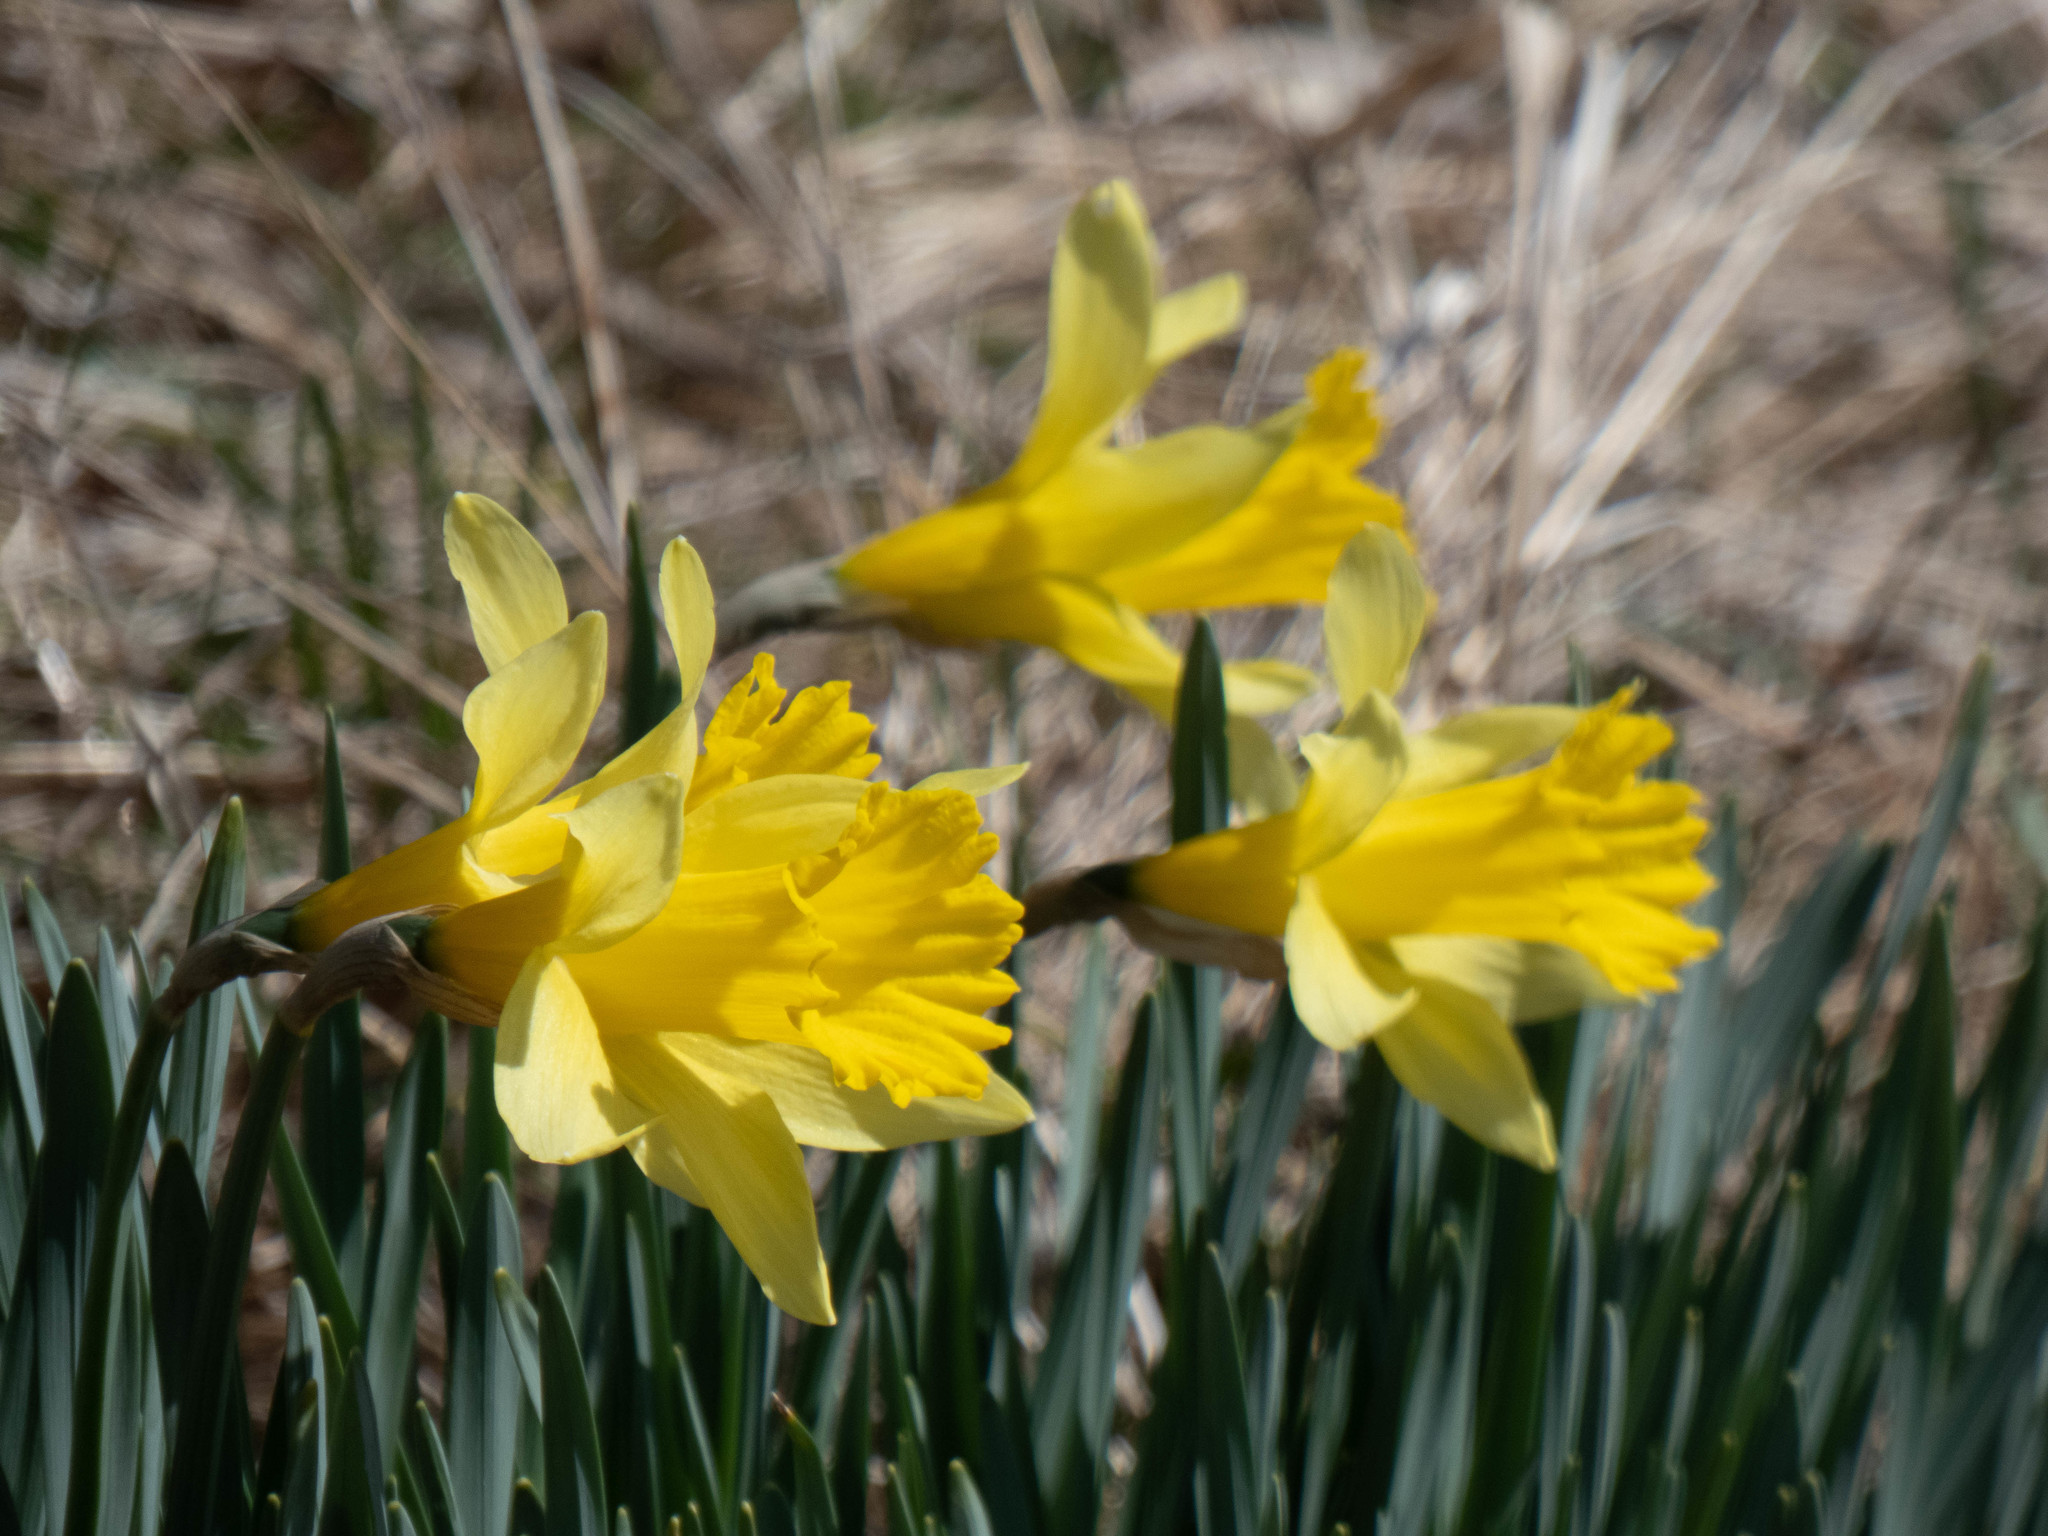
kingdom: Plantae
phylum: Tracheophyta
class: Liliopsida
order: Asparagales
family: Amaryllidaceae
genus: Narcissus
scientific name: Narcissus
